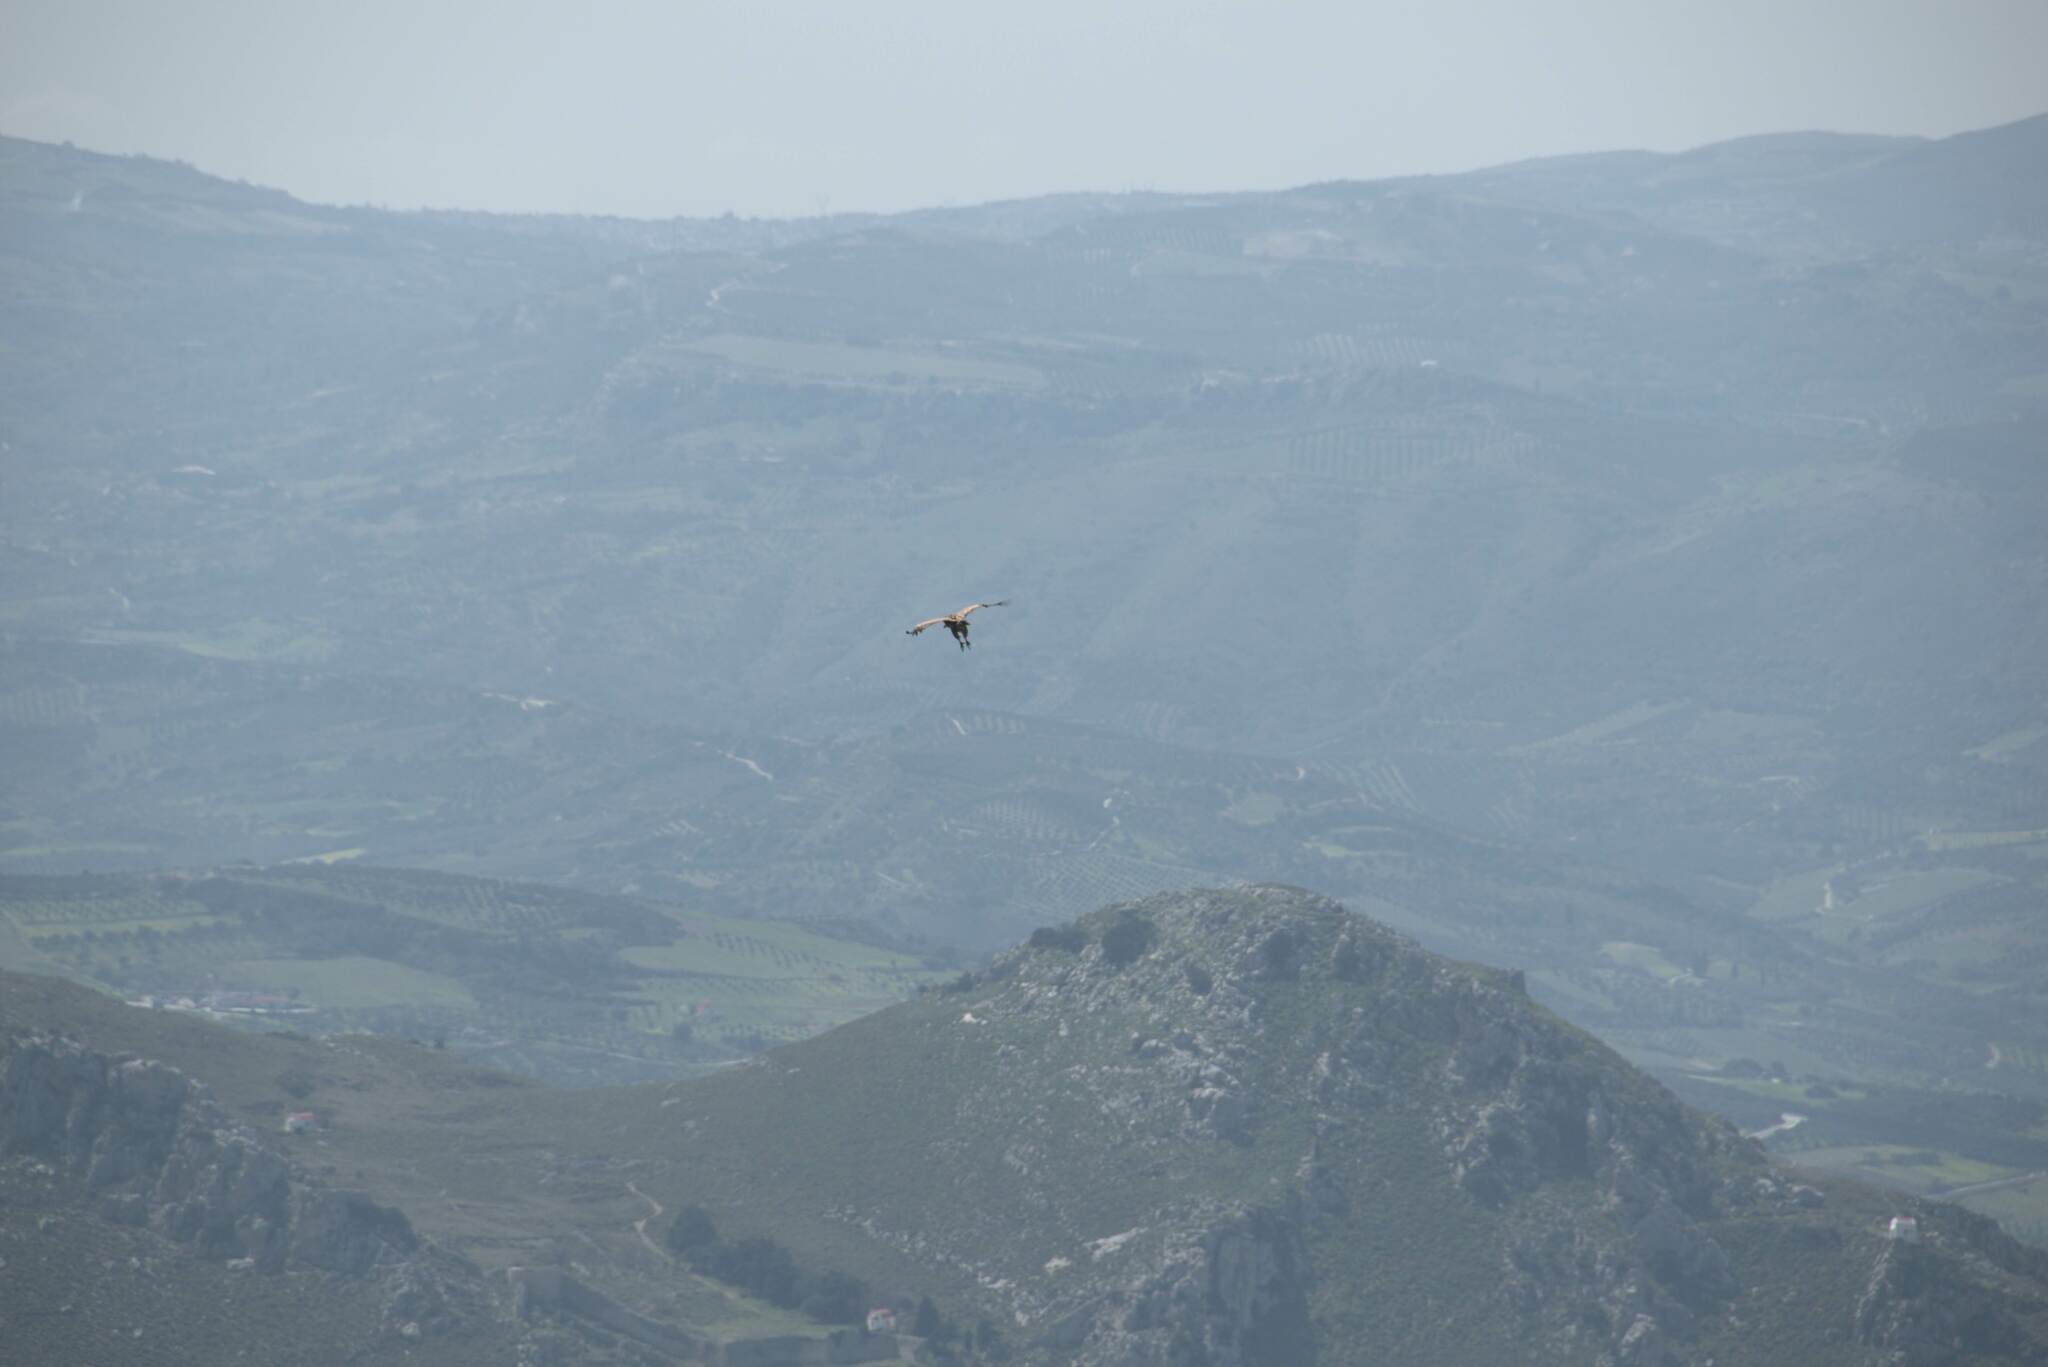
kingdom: Animalia
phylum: Chordata
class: Aves
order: Accipitriformes
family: Accipitridae
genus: Gyps
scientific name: Gyps fulvus
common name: Griffon vulture
